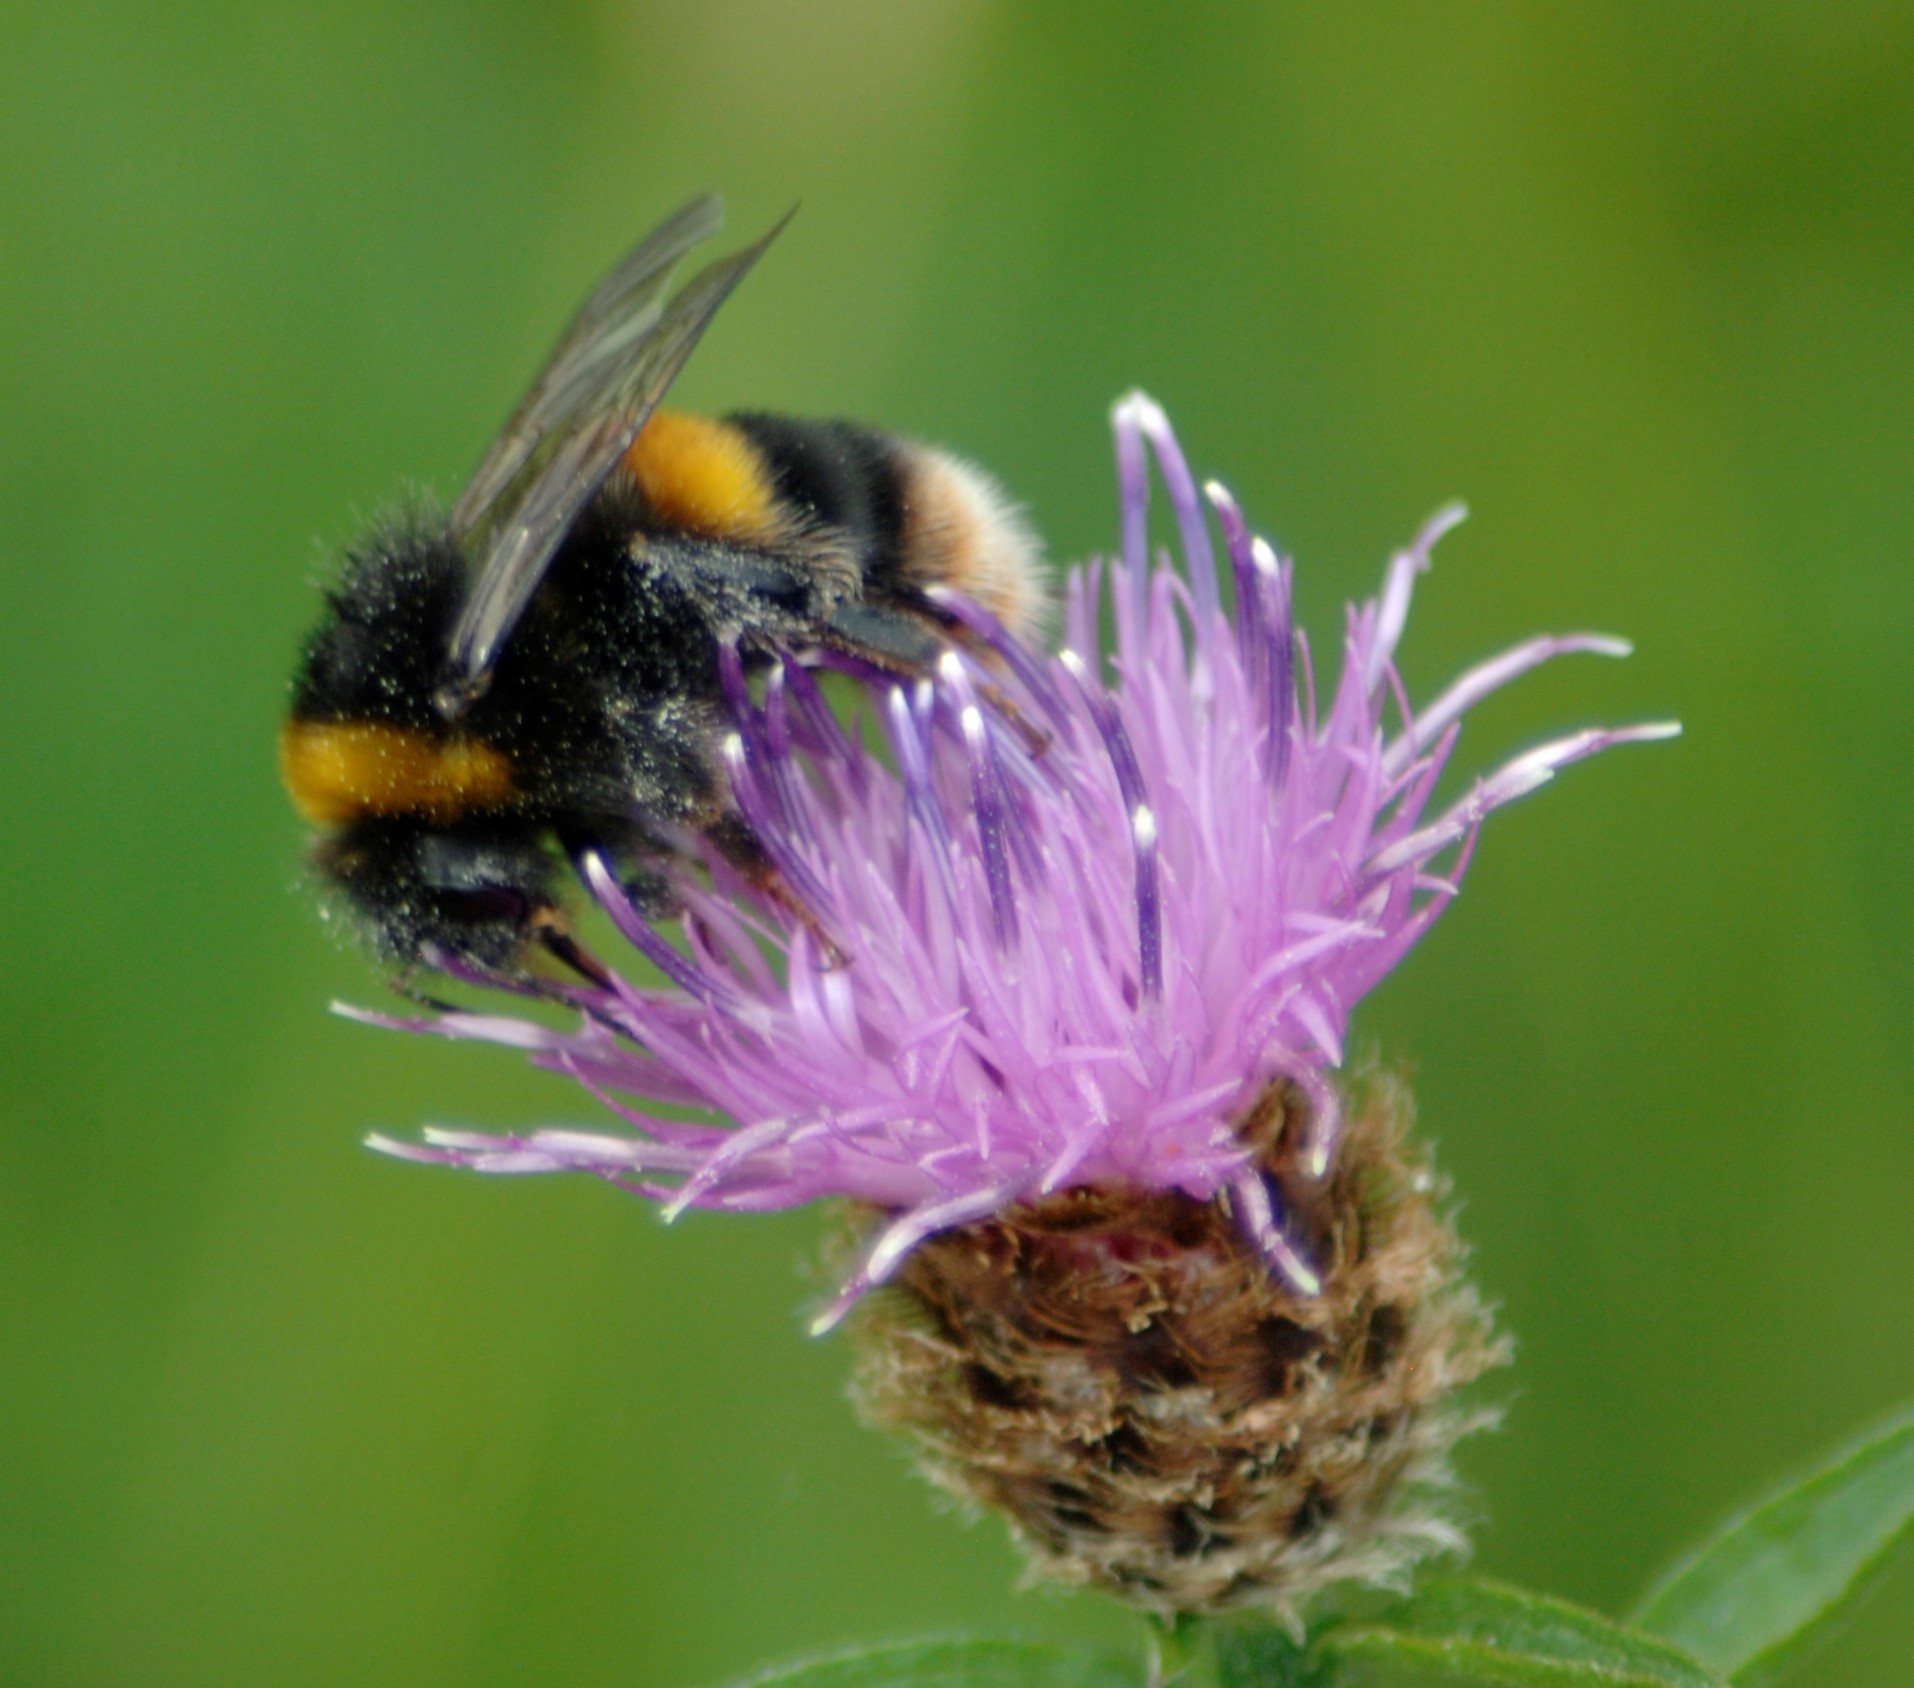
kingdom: Animalia
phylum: Arthropoda
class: Insecta
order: Hymenoptera
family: Apidae
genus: Bombus
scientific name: Bombus terrestris
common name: Buff-tailed bumblebee
